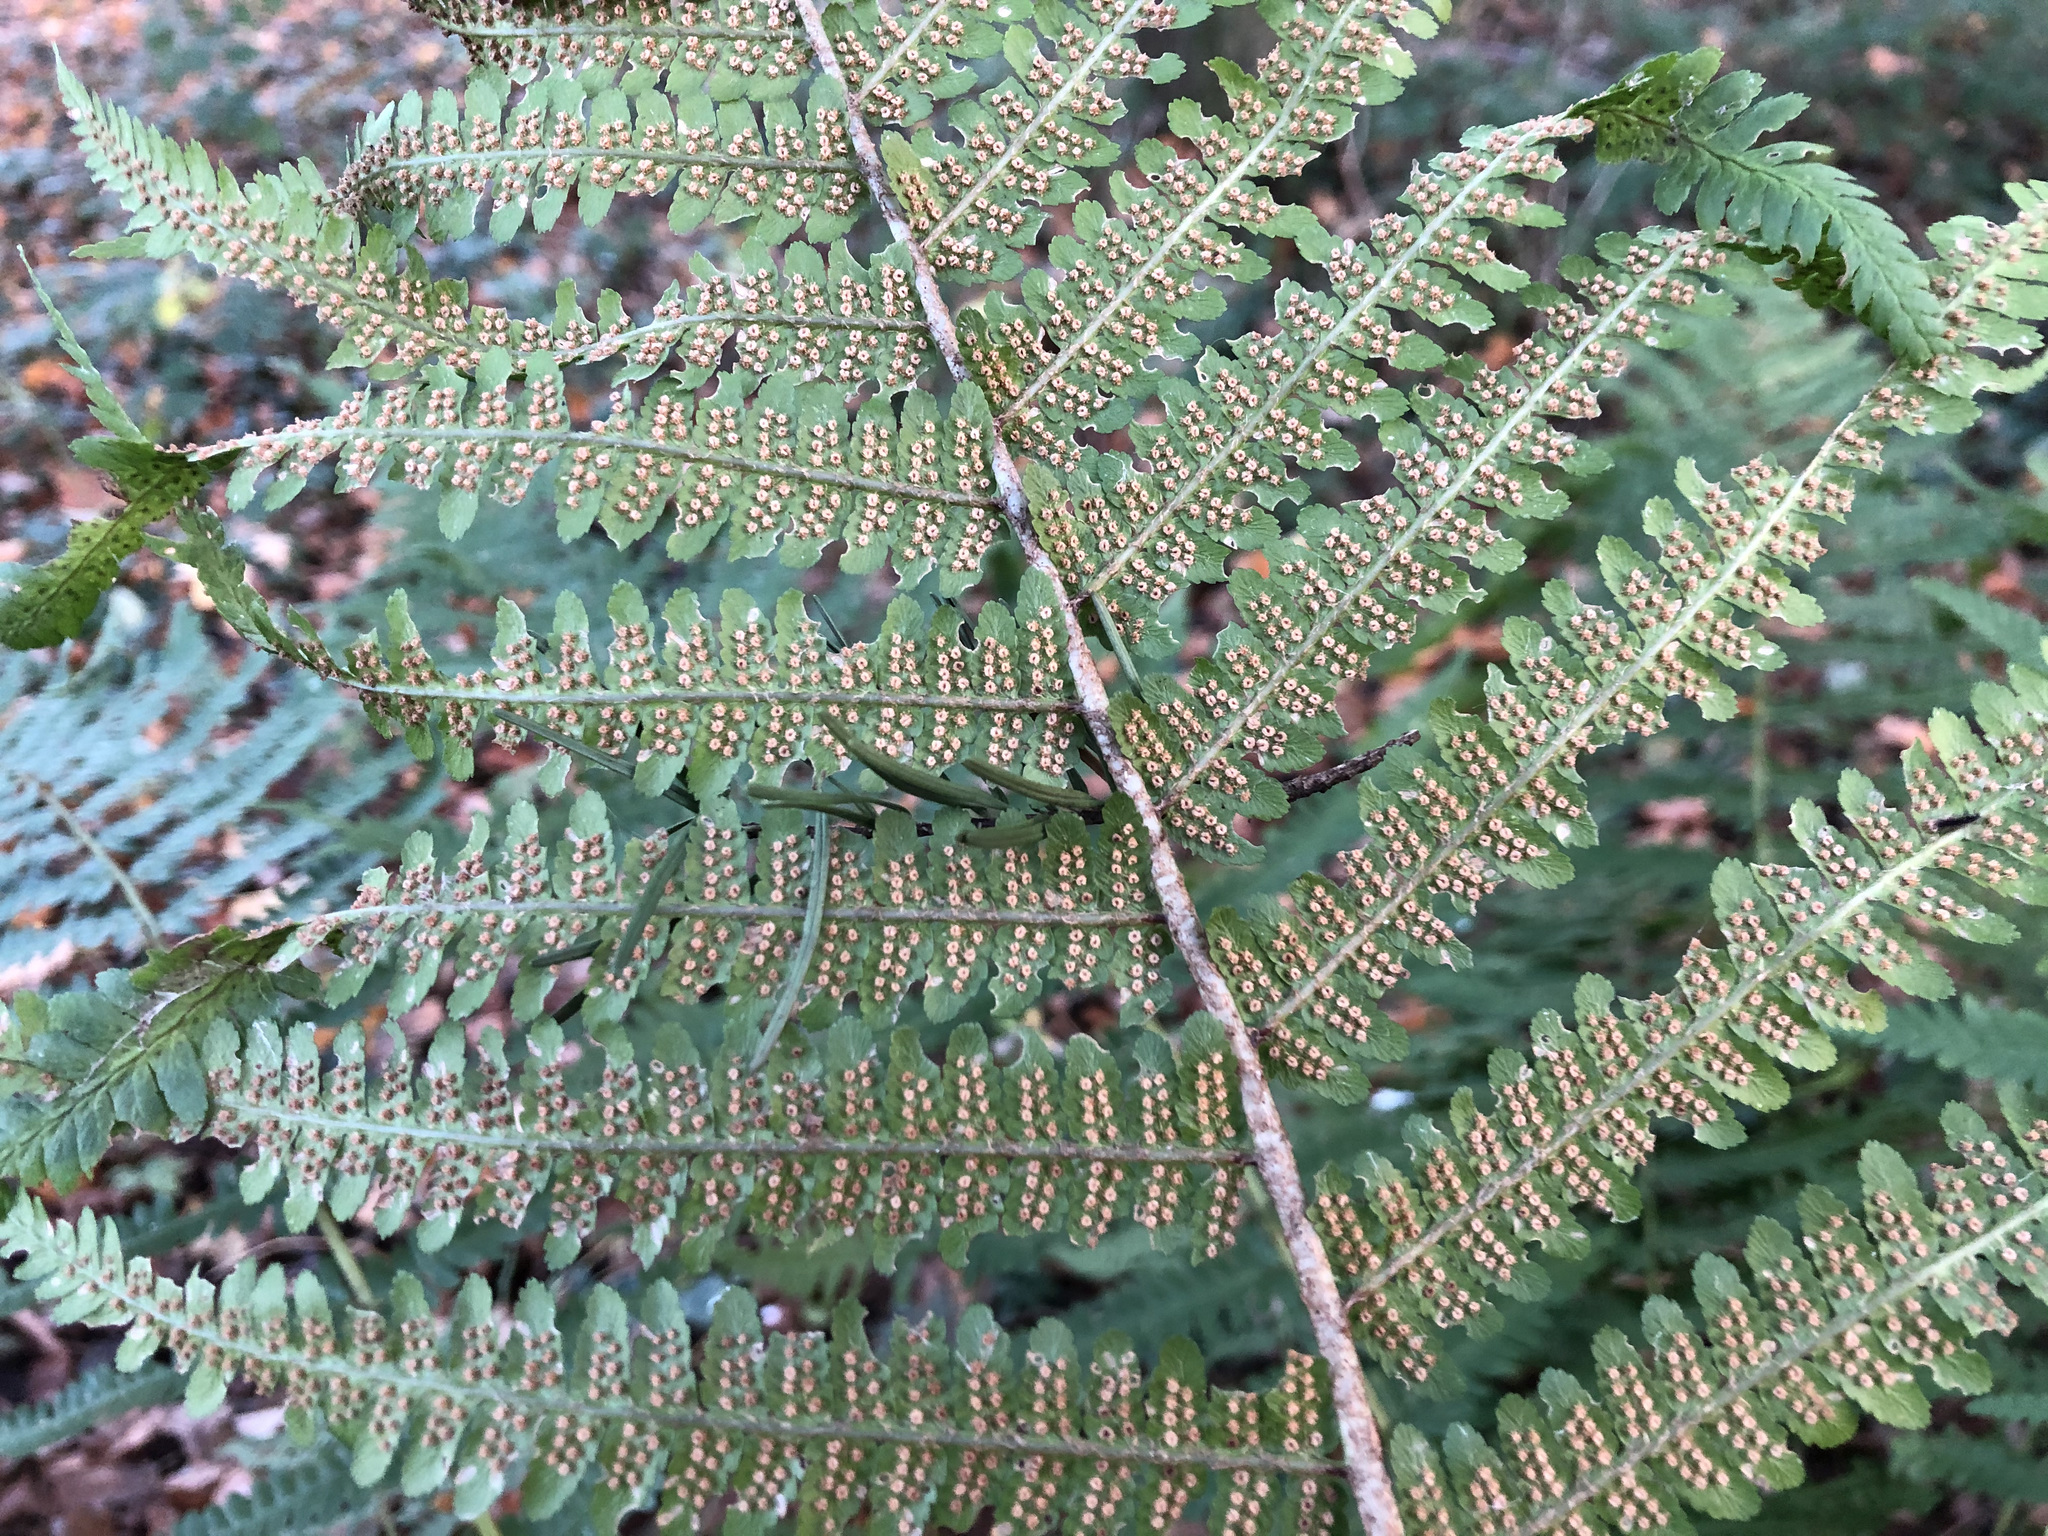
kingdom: Plantae
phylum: Tracheophyta
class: Polypodiopsida
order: Polypodiales
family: Dryopteridaceae
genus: Dryopteris
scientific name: Dryopteris filix-mas
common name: Male fern
